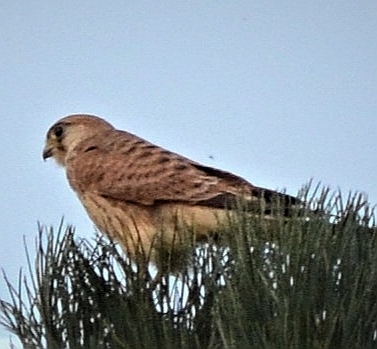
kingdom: Animalia
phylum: Chordata
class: Aves
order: Falconiformes
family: Falconidae
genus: Falco
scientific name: Falco tinnunculus
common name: Common kestrel
